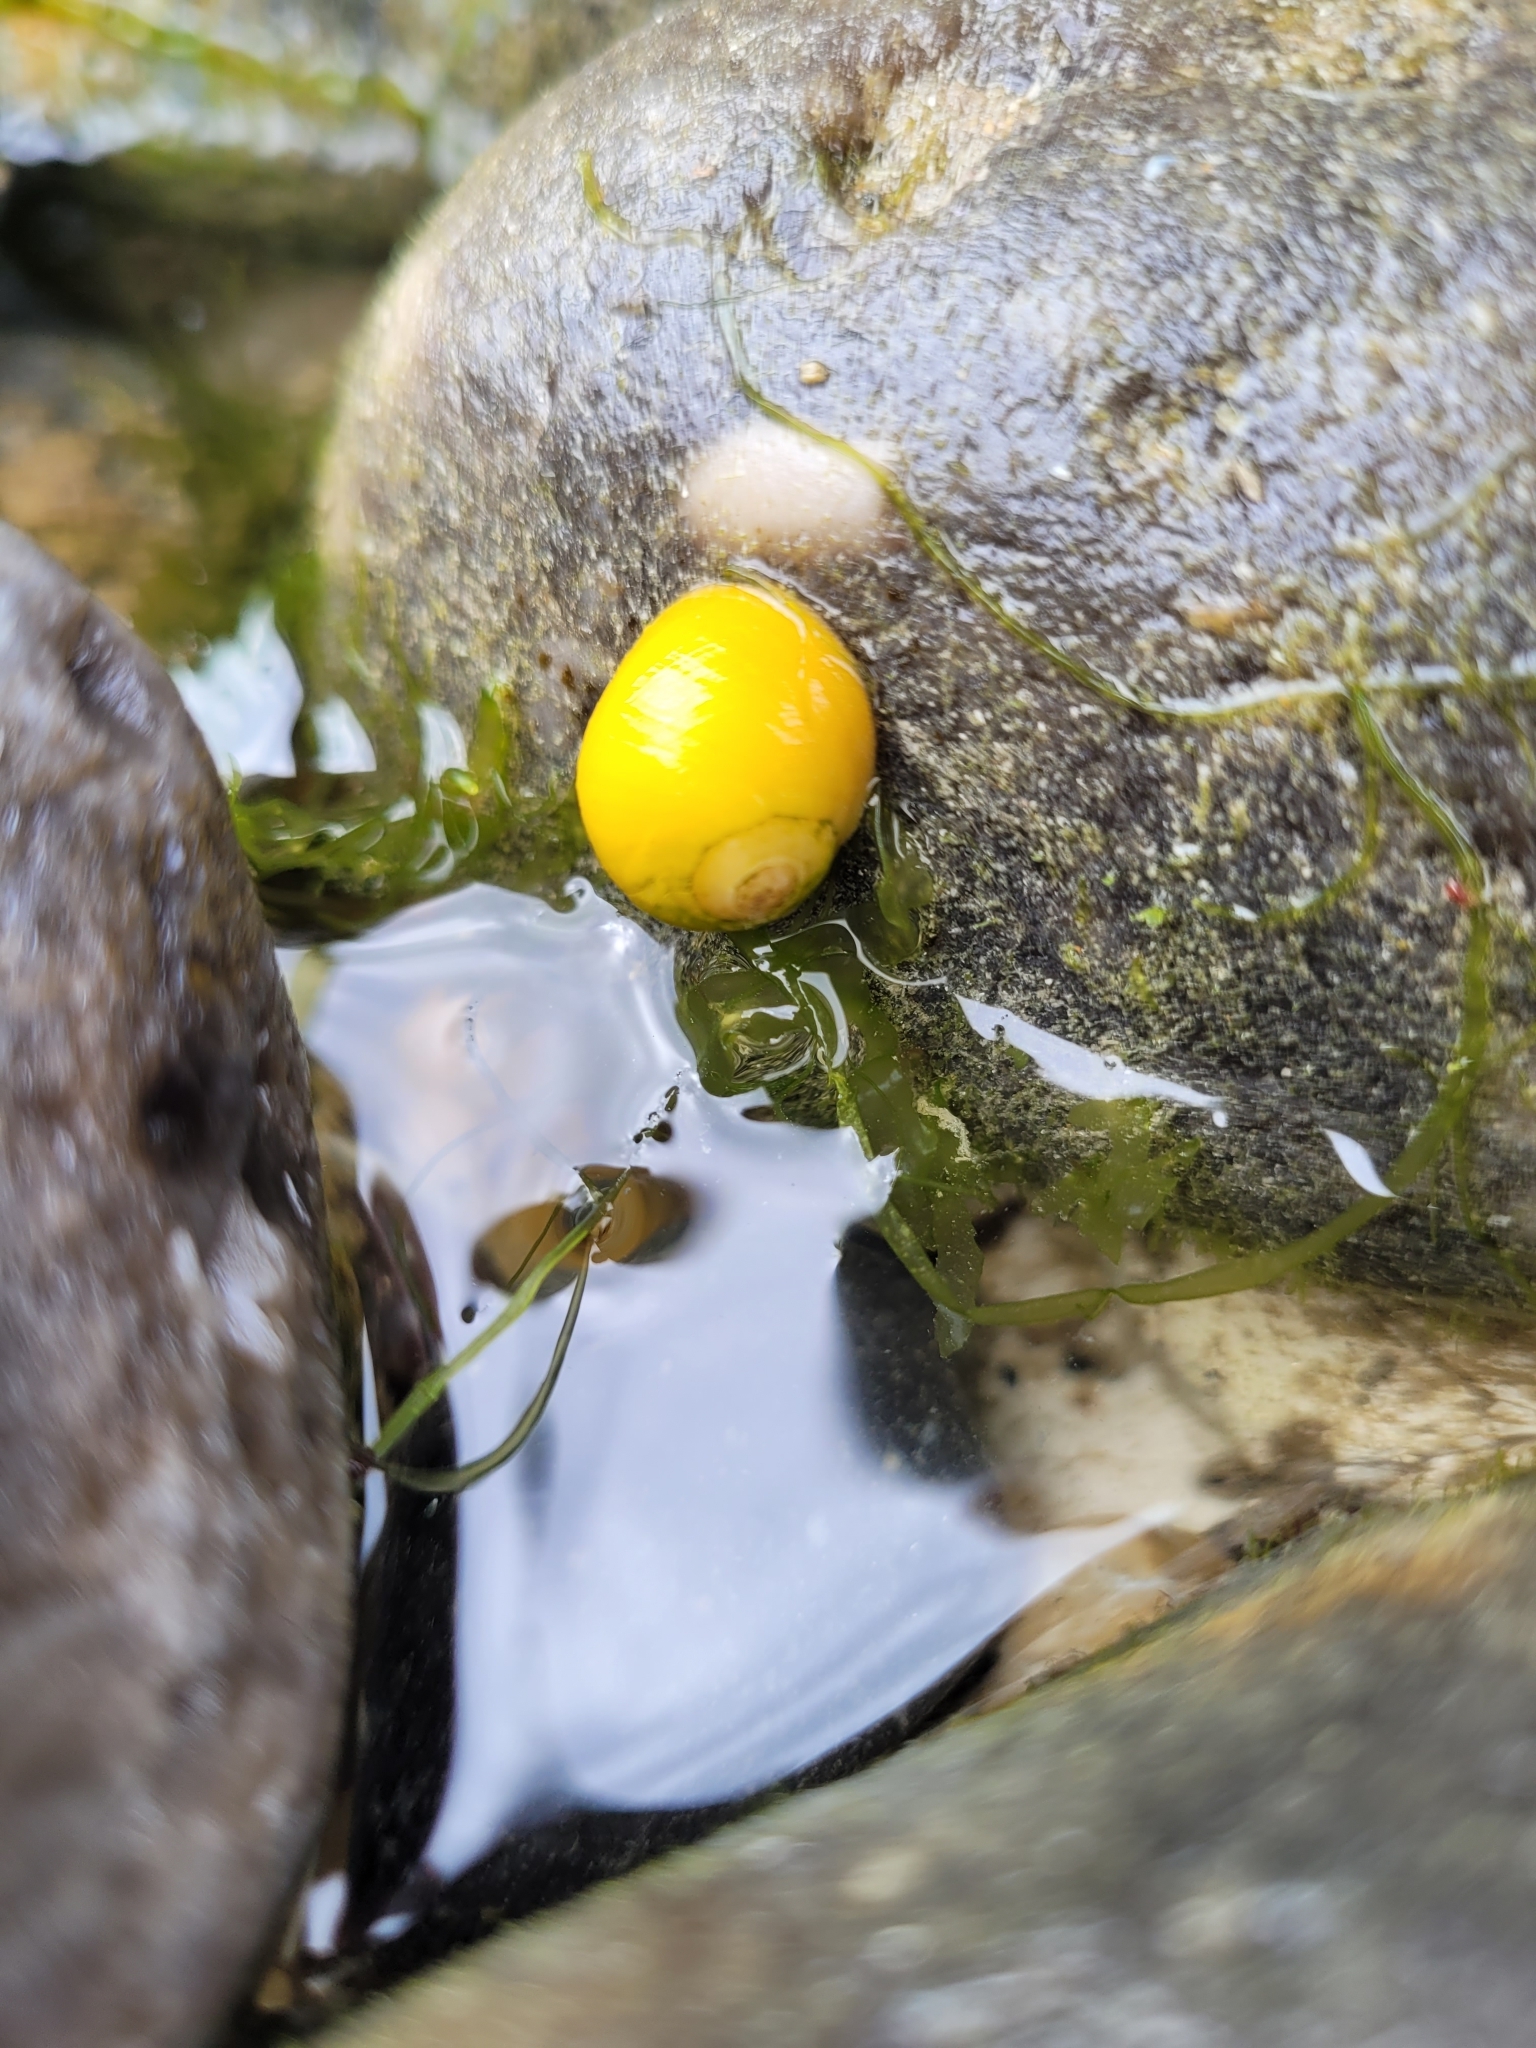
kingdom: Animalia
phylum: Mollusca
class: Gastropoda
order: Littorinimorpha
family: Littorinidae
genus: Littorina
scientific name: Littorina
